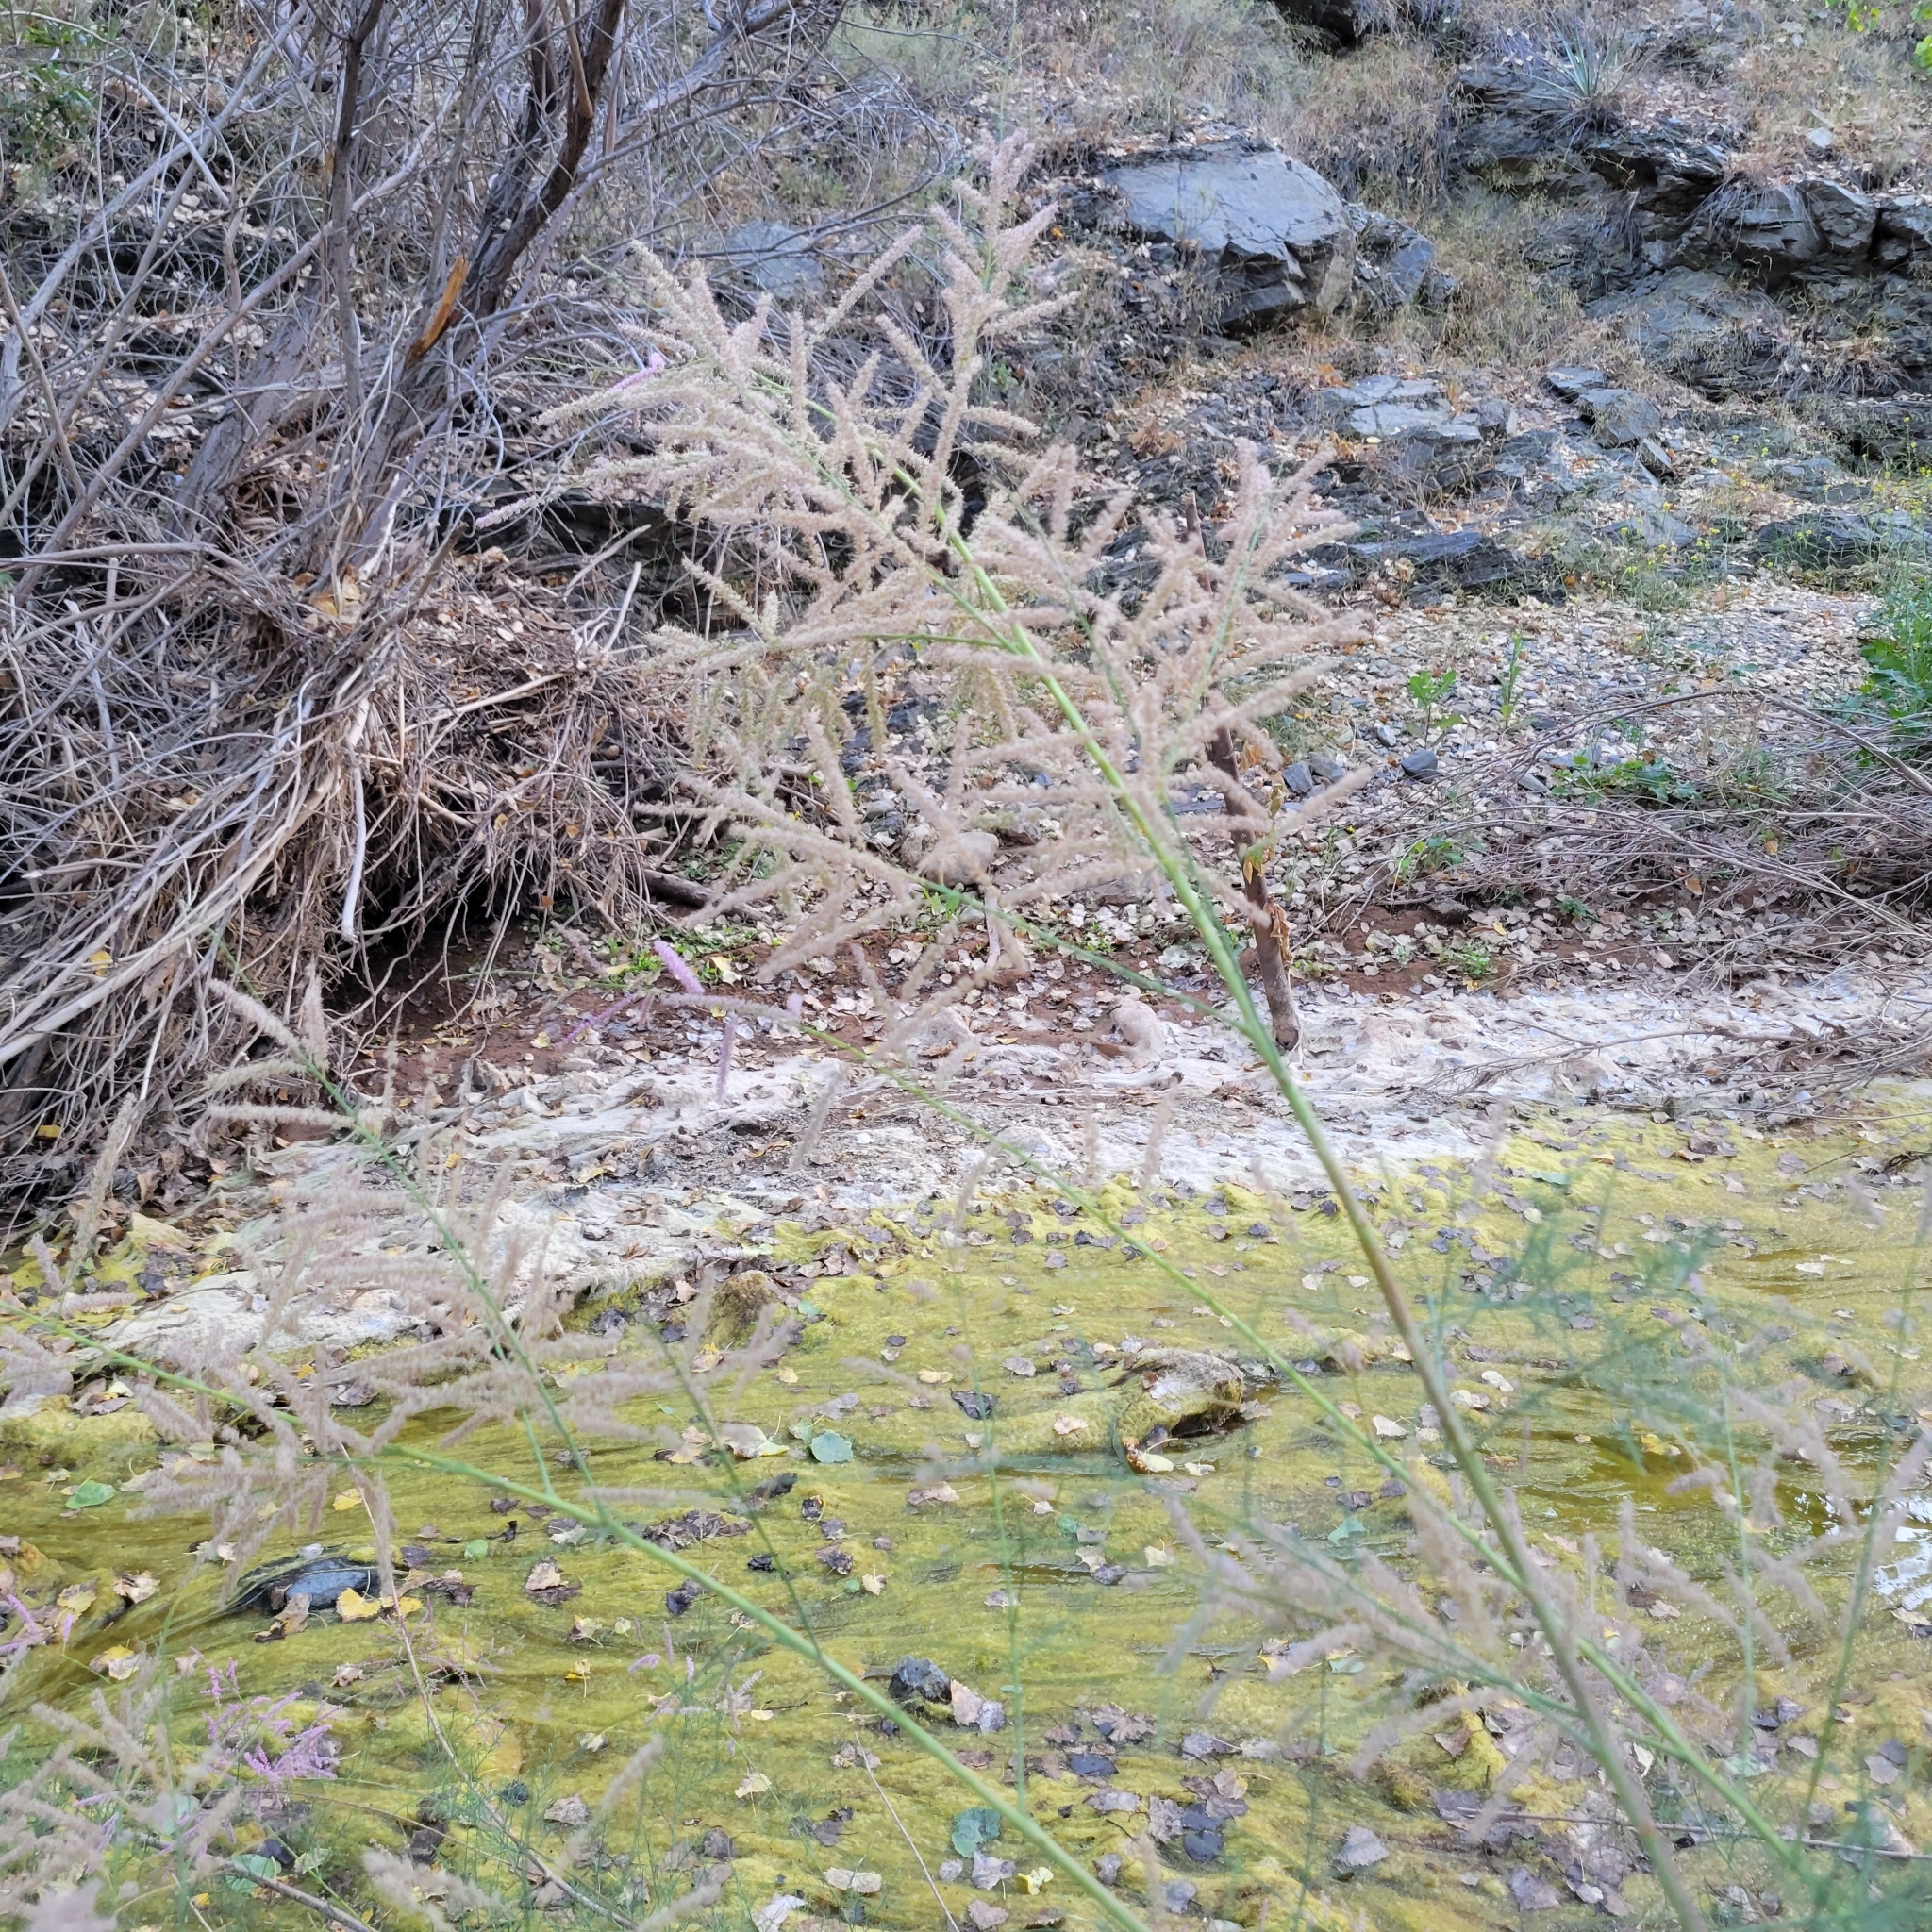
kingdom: Plantae
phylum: Tracheophyta
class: Magnoliopsida
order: Caryophyllales
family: Tamaricaceae
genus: Tamarix
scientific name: Tamarix ramosissima
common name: Pink tamarisk
